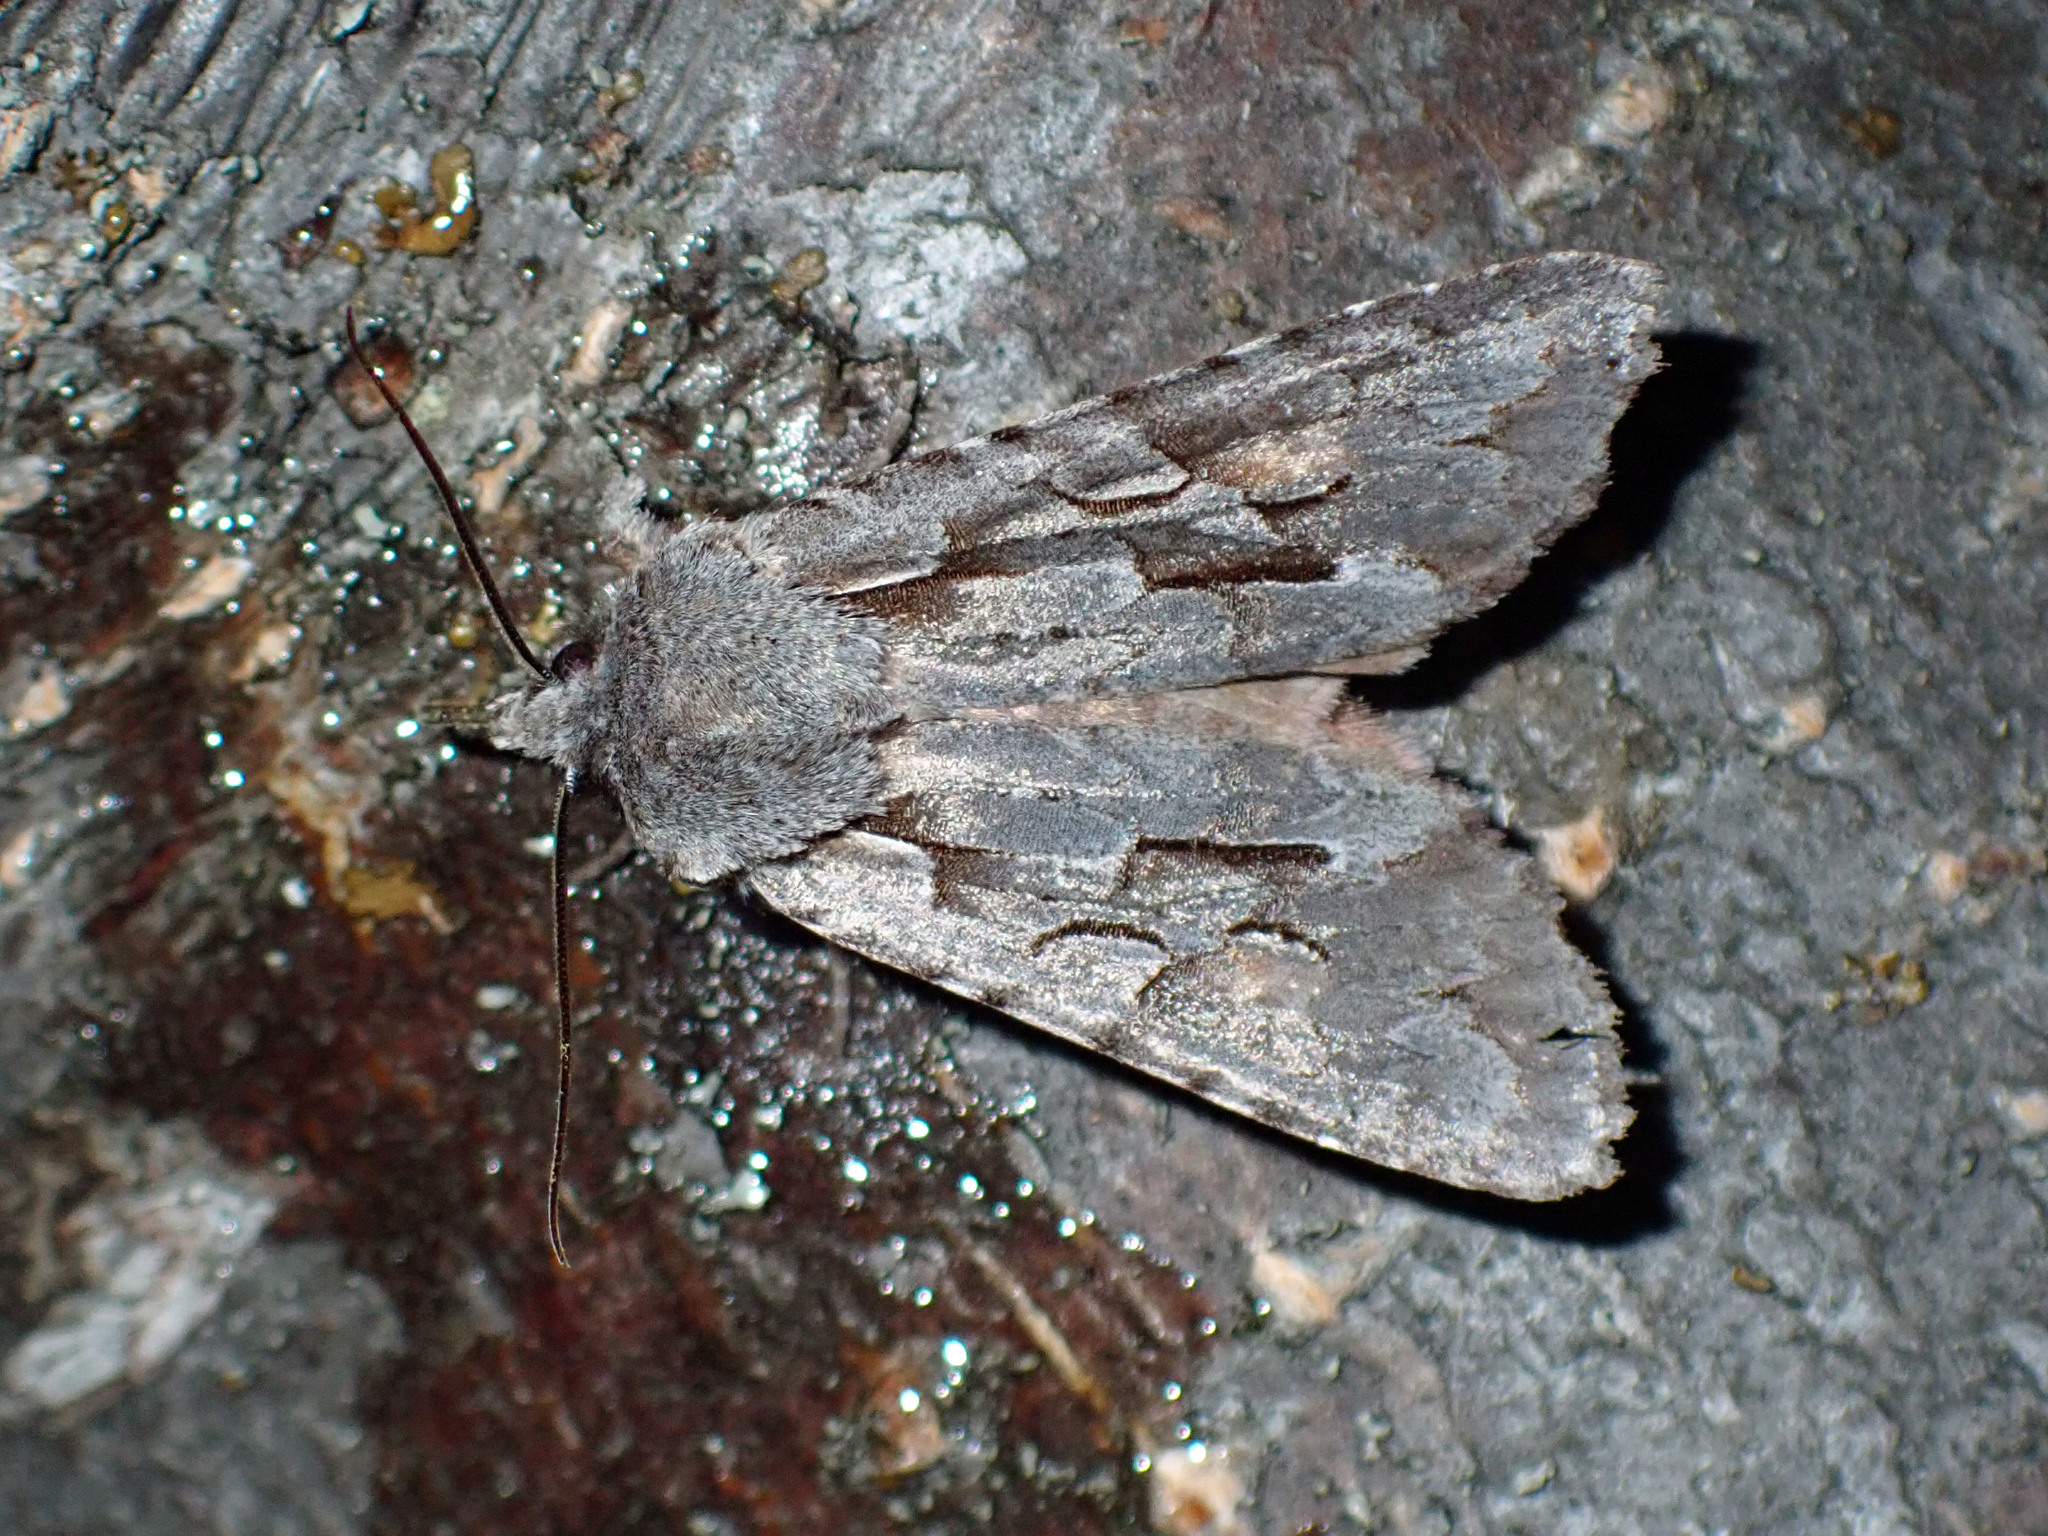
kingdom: Animalia
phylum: Arthropoda
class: Insecta
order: Lepidoptera
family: Noctuidae
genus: Lithophane
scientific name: Lithophane thaxteri
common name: Nonconformist
